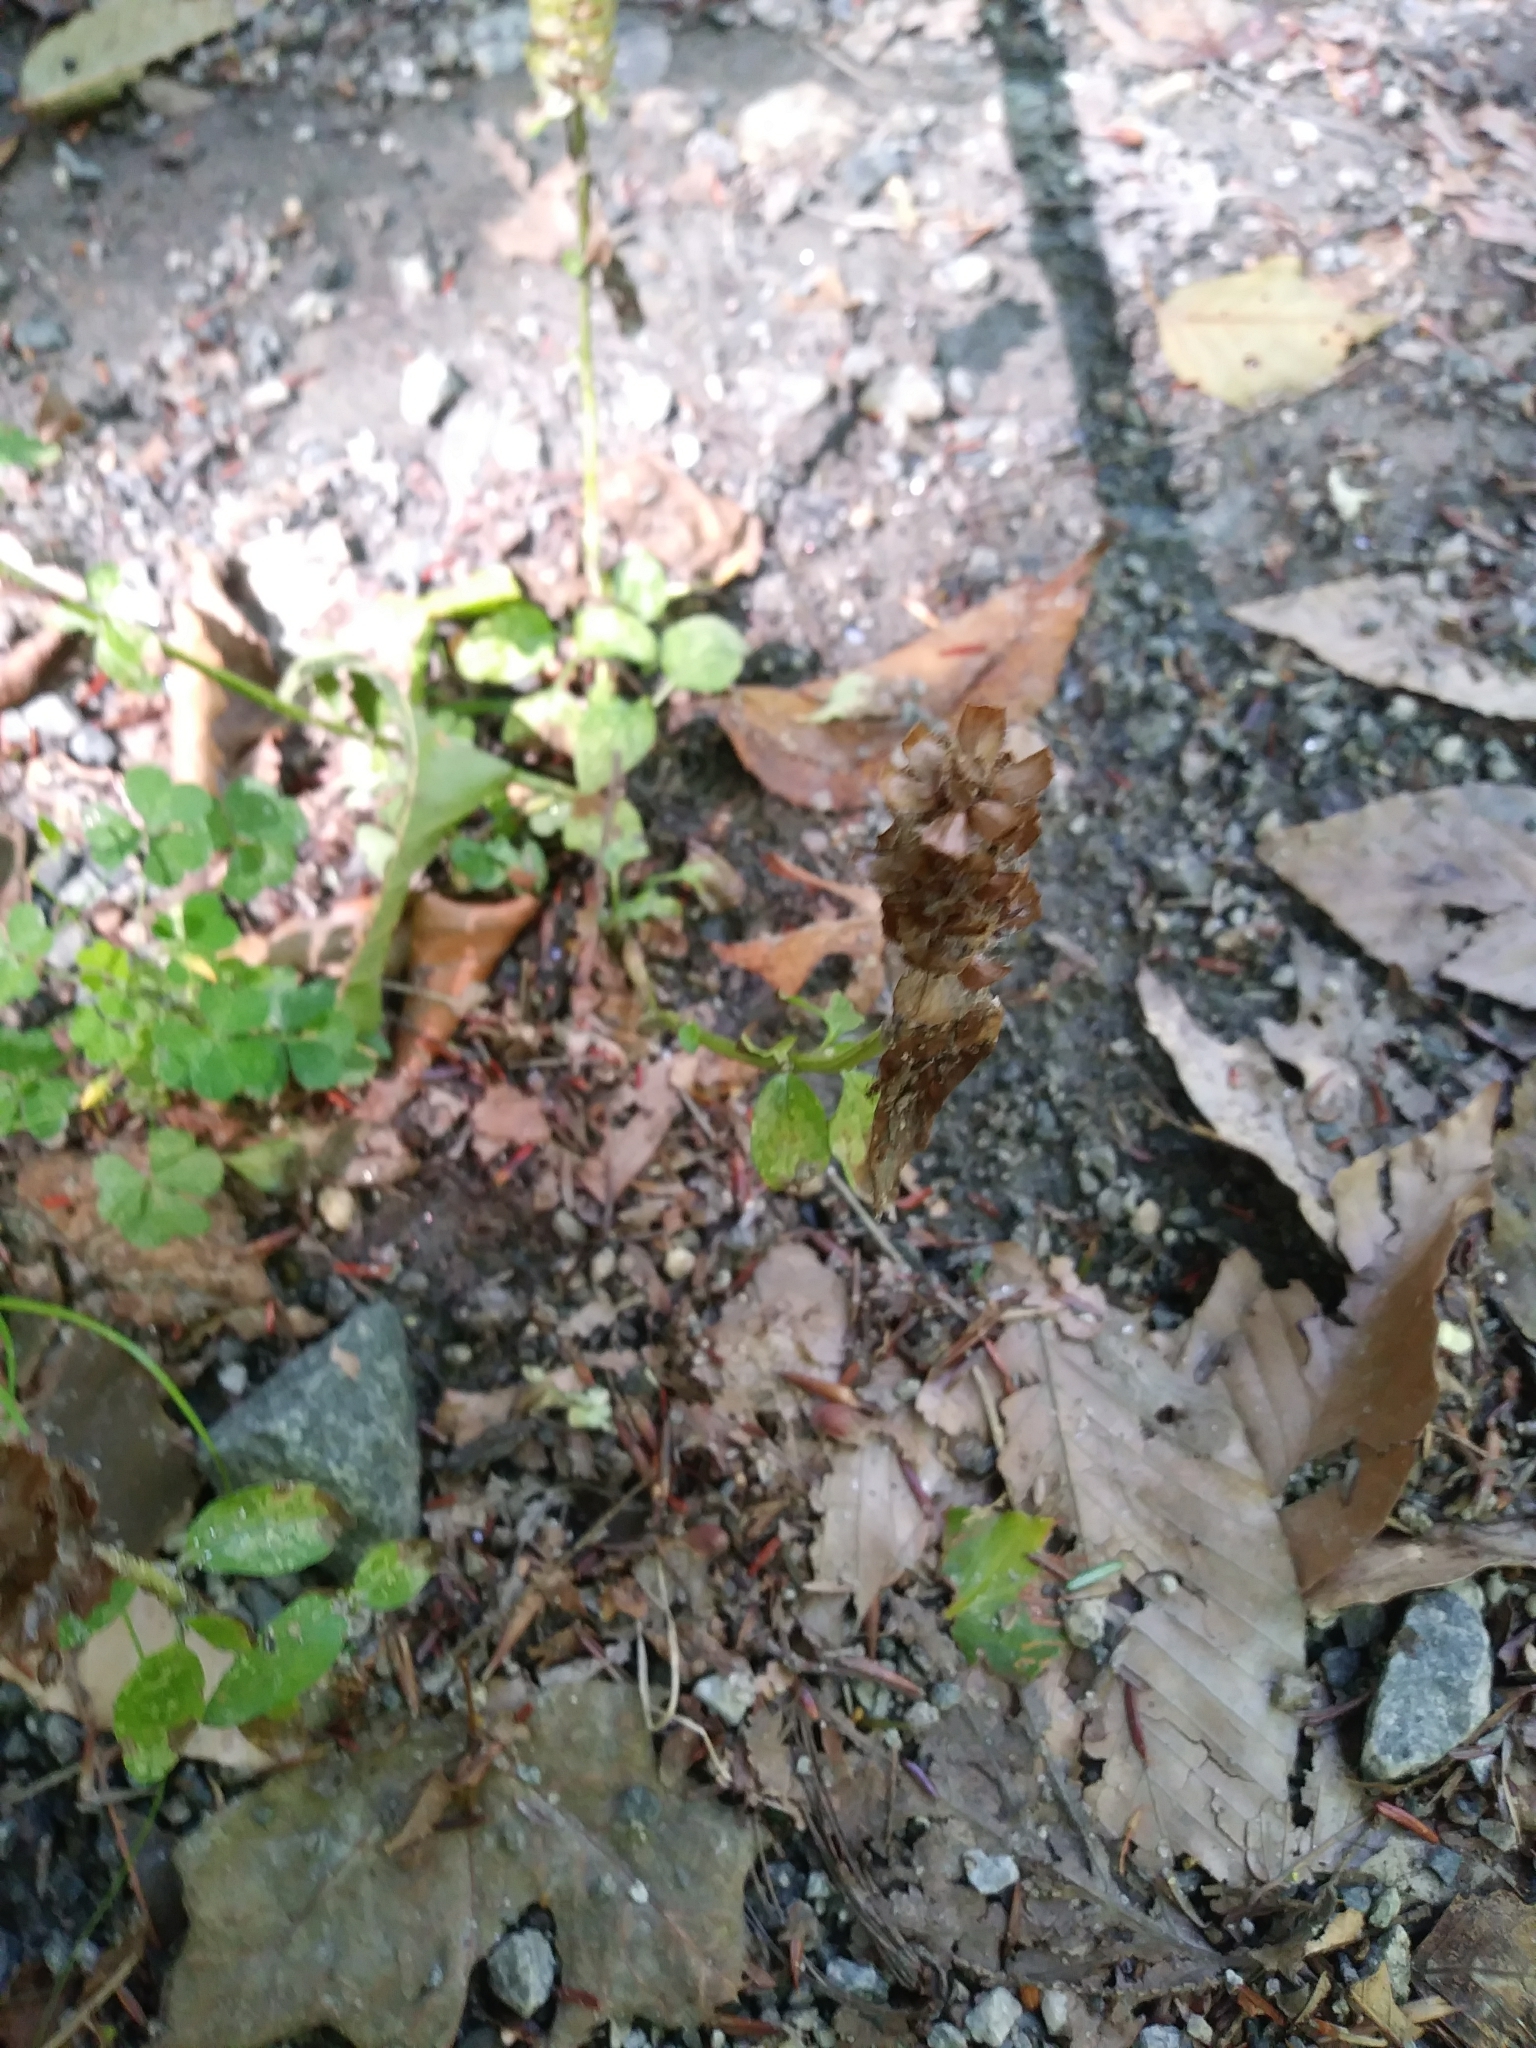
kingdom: Plantae
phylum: Tracheophyta
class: Magnoliopsida
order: Lamiales
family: Lamiaceae
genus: Prunella
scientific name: Prunella vulgaris
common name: Heal-all
